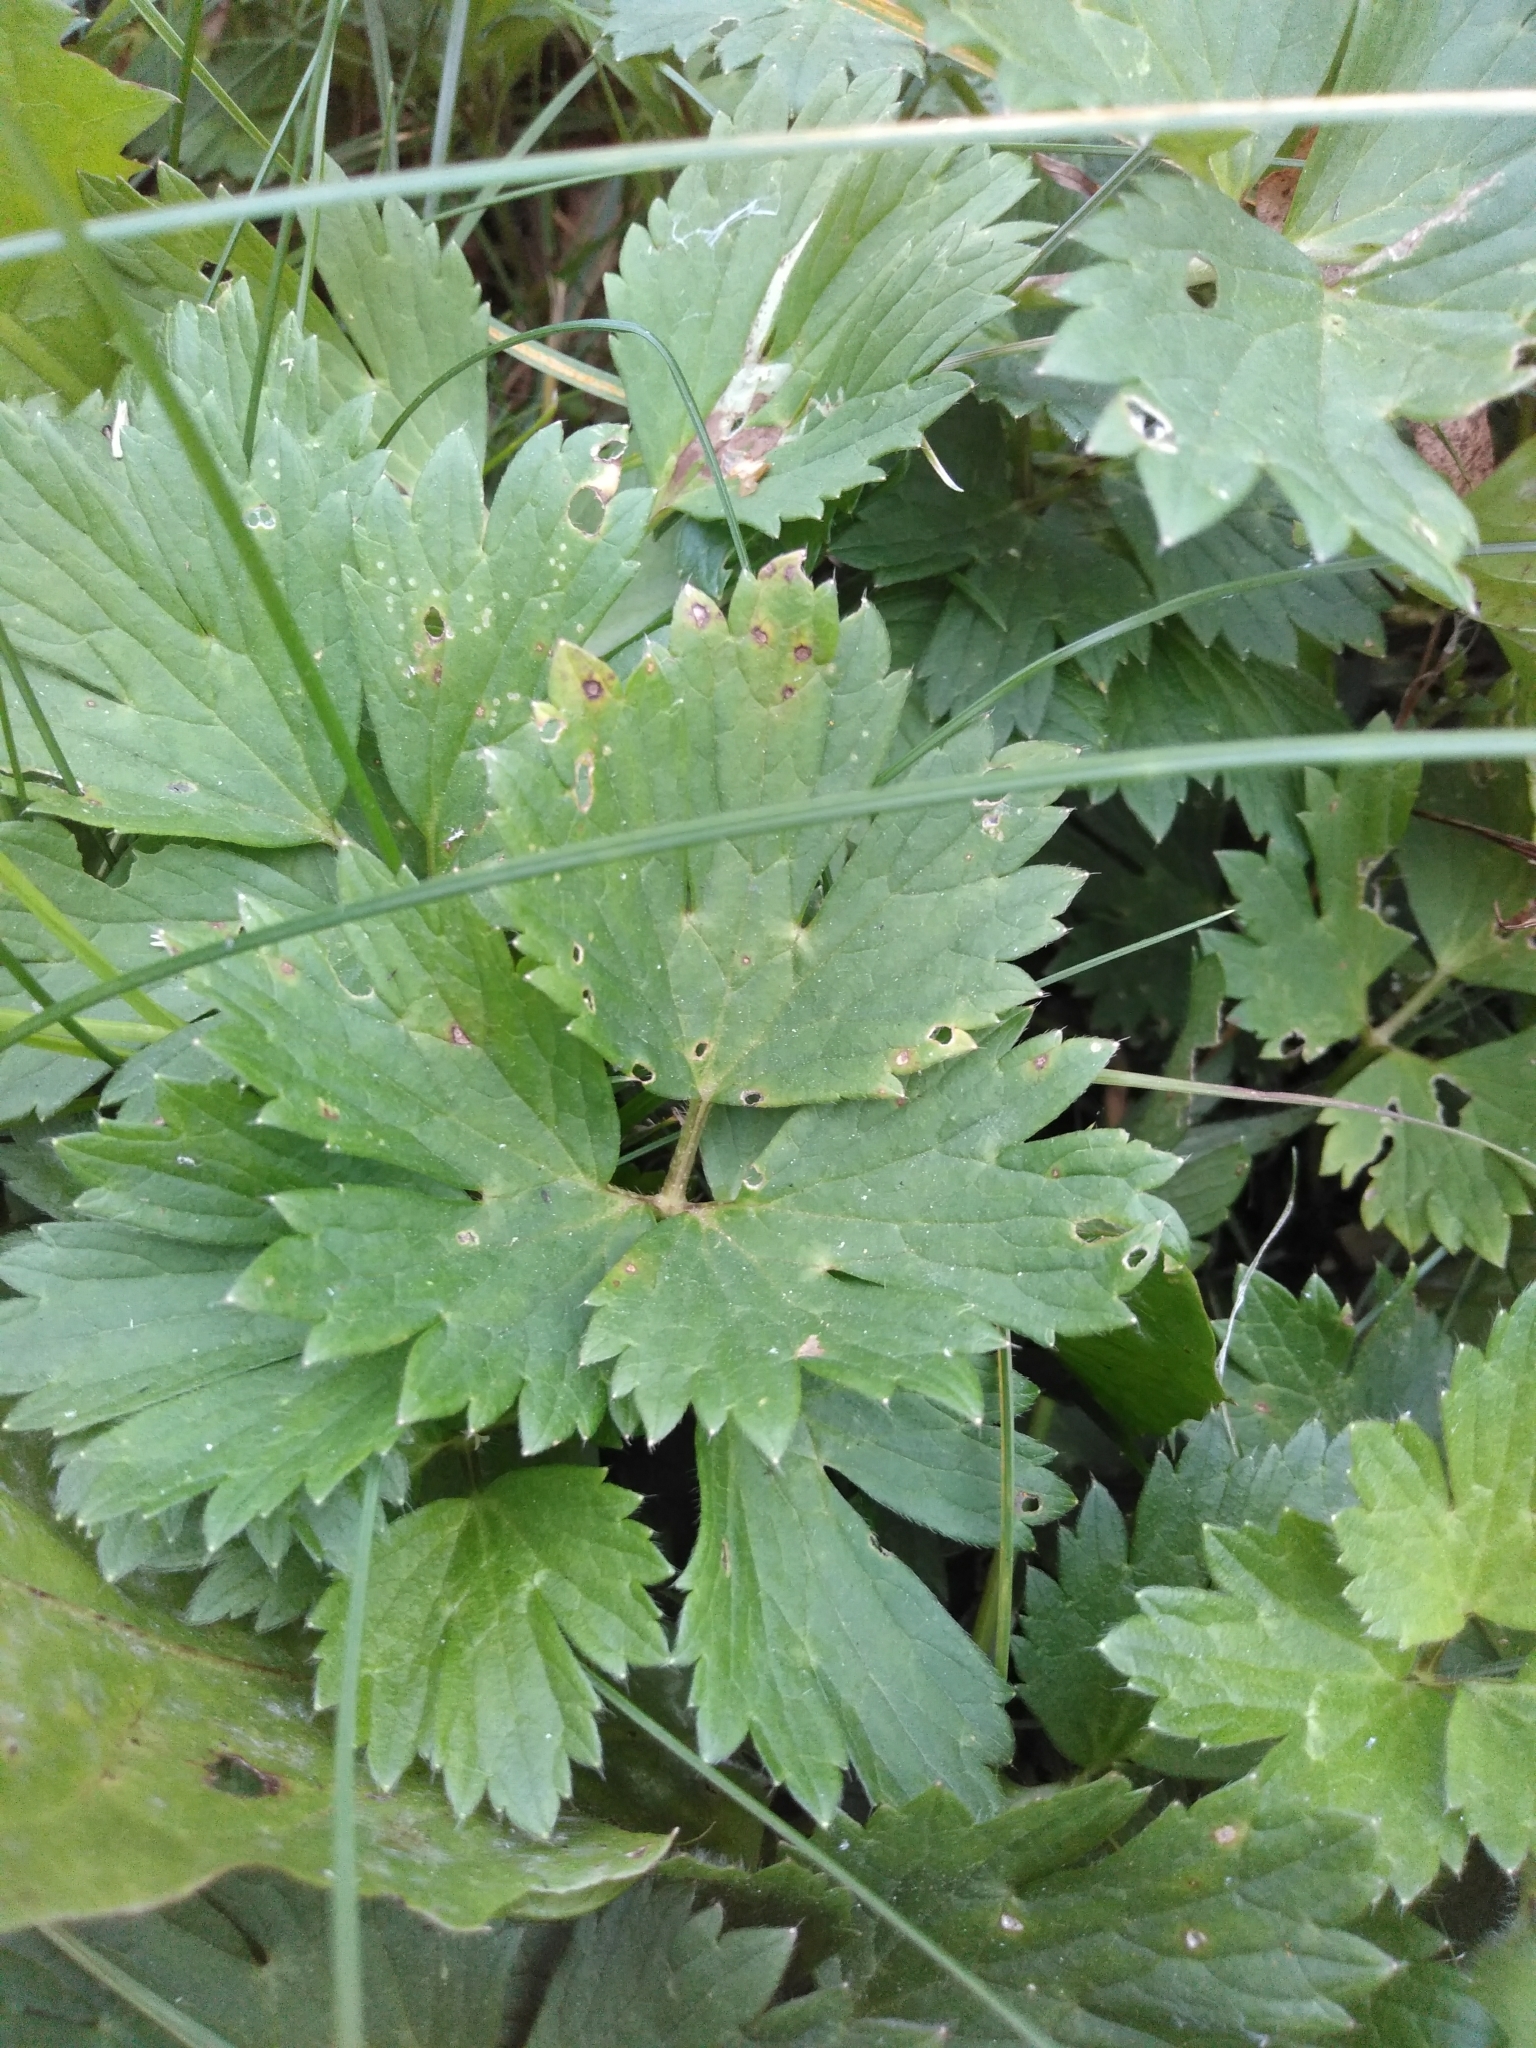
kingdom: Plantae
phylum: Tracheophyta
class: Magnoliopsida
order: Ranunculales
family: Ranunculaceae
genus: Ranunculus
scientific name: Ranunculus repens
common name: Creeping buttercup
